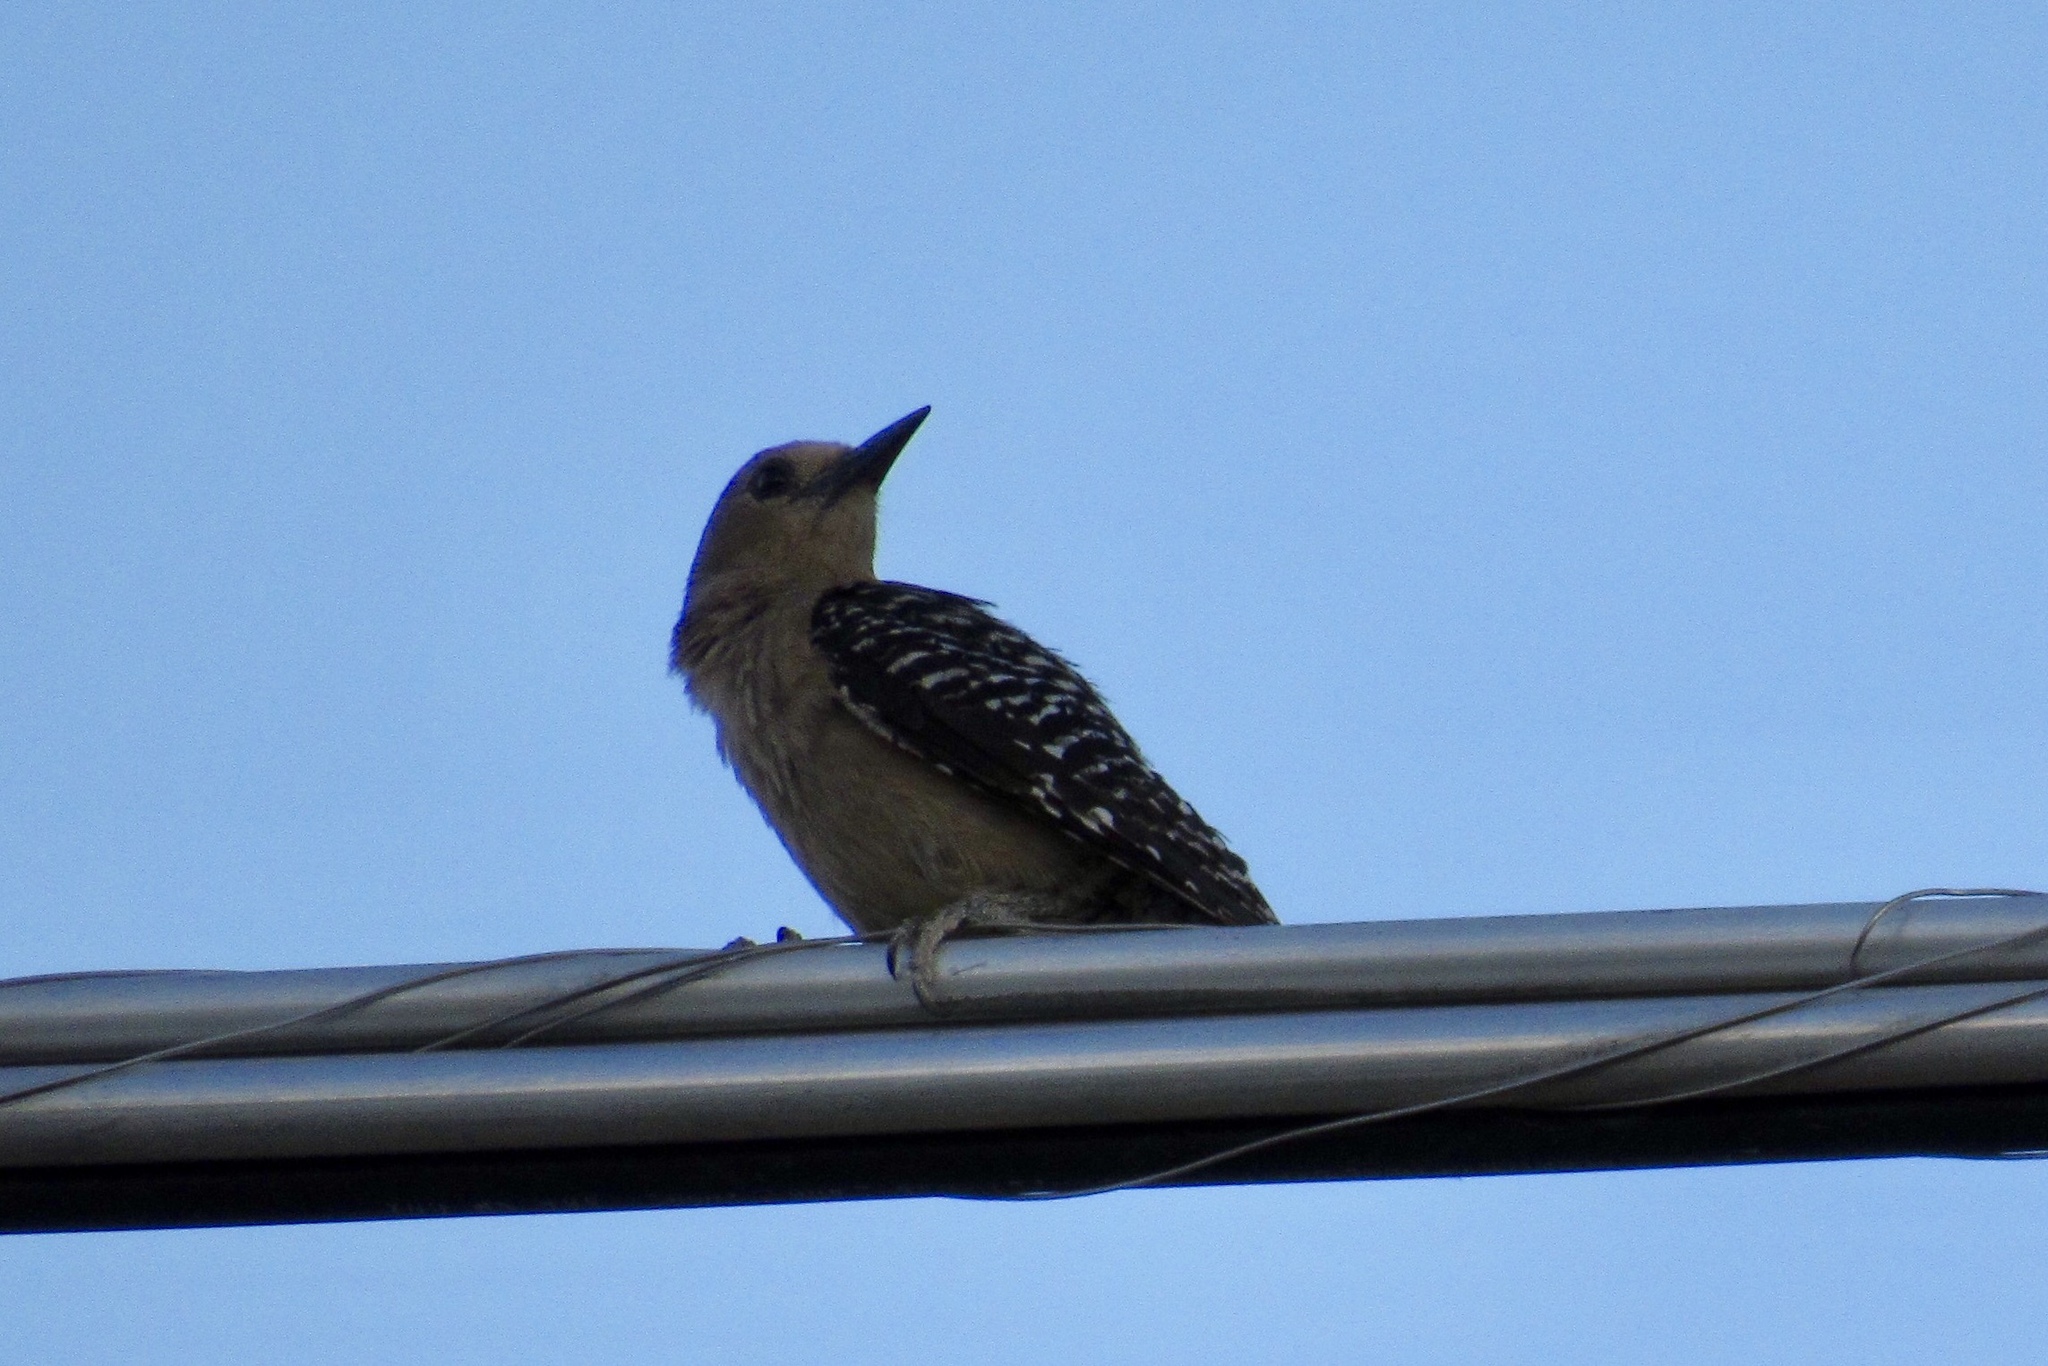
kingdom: Animalia
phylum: Chordata
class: Aves
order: Piciformes
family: Picidae
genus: Melanerpes
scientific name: Melanerpes uropygialis
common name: Gila woodpecker
